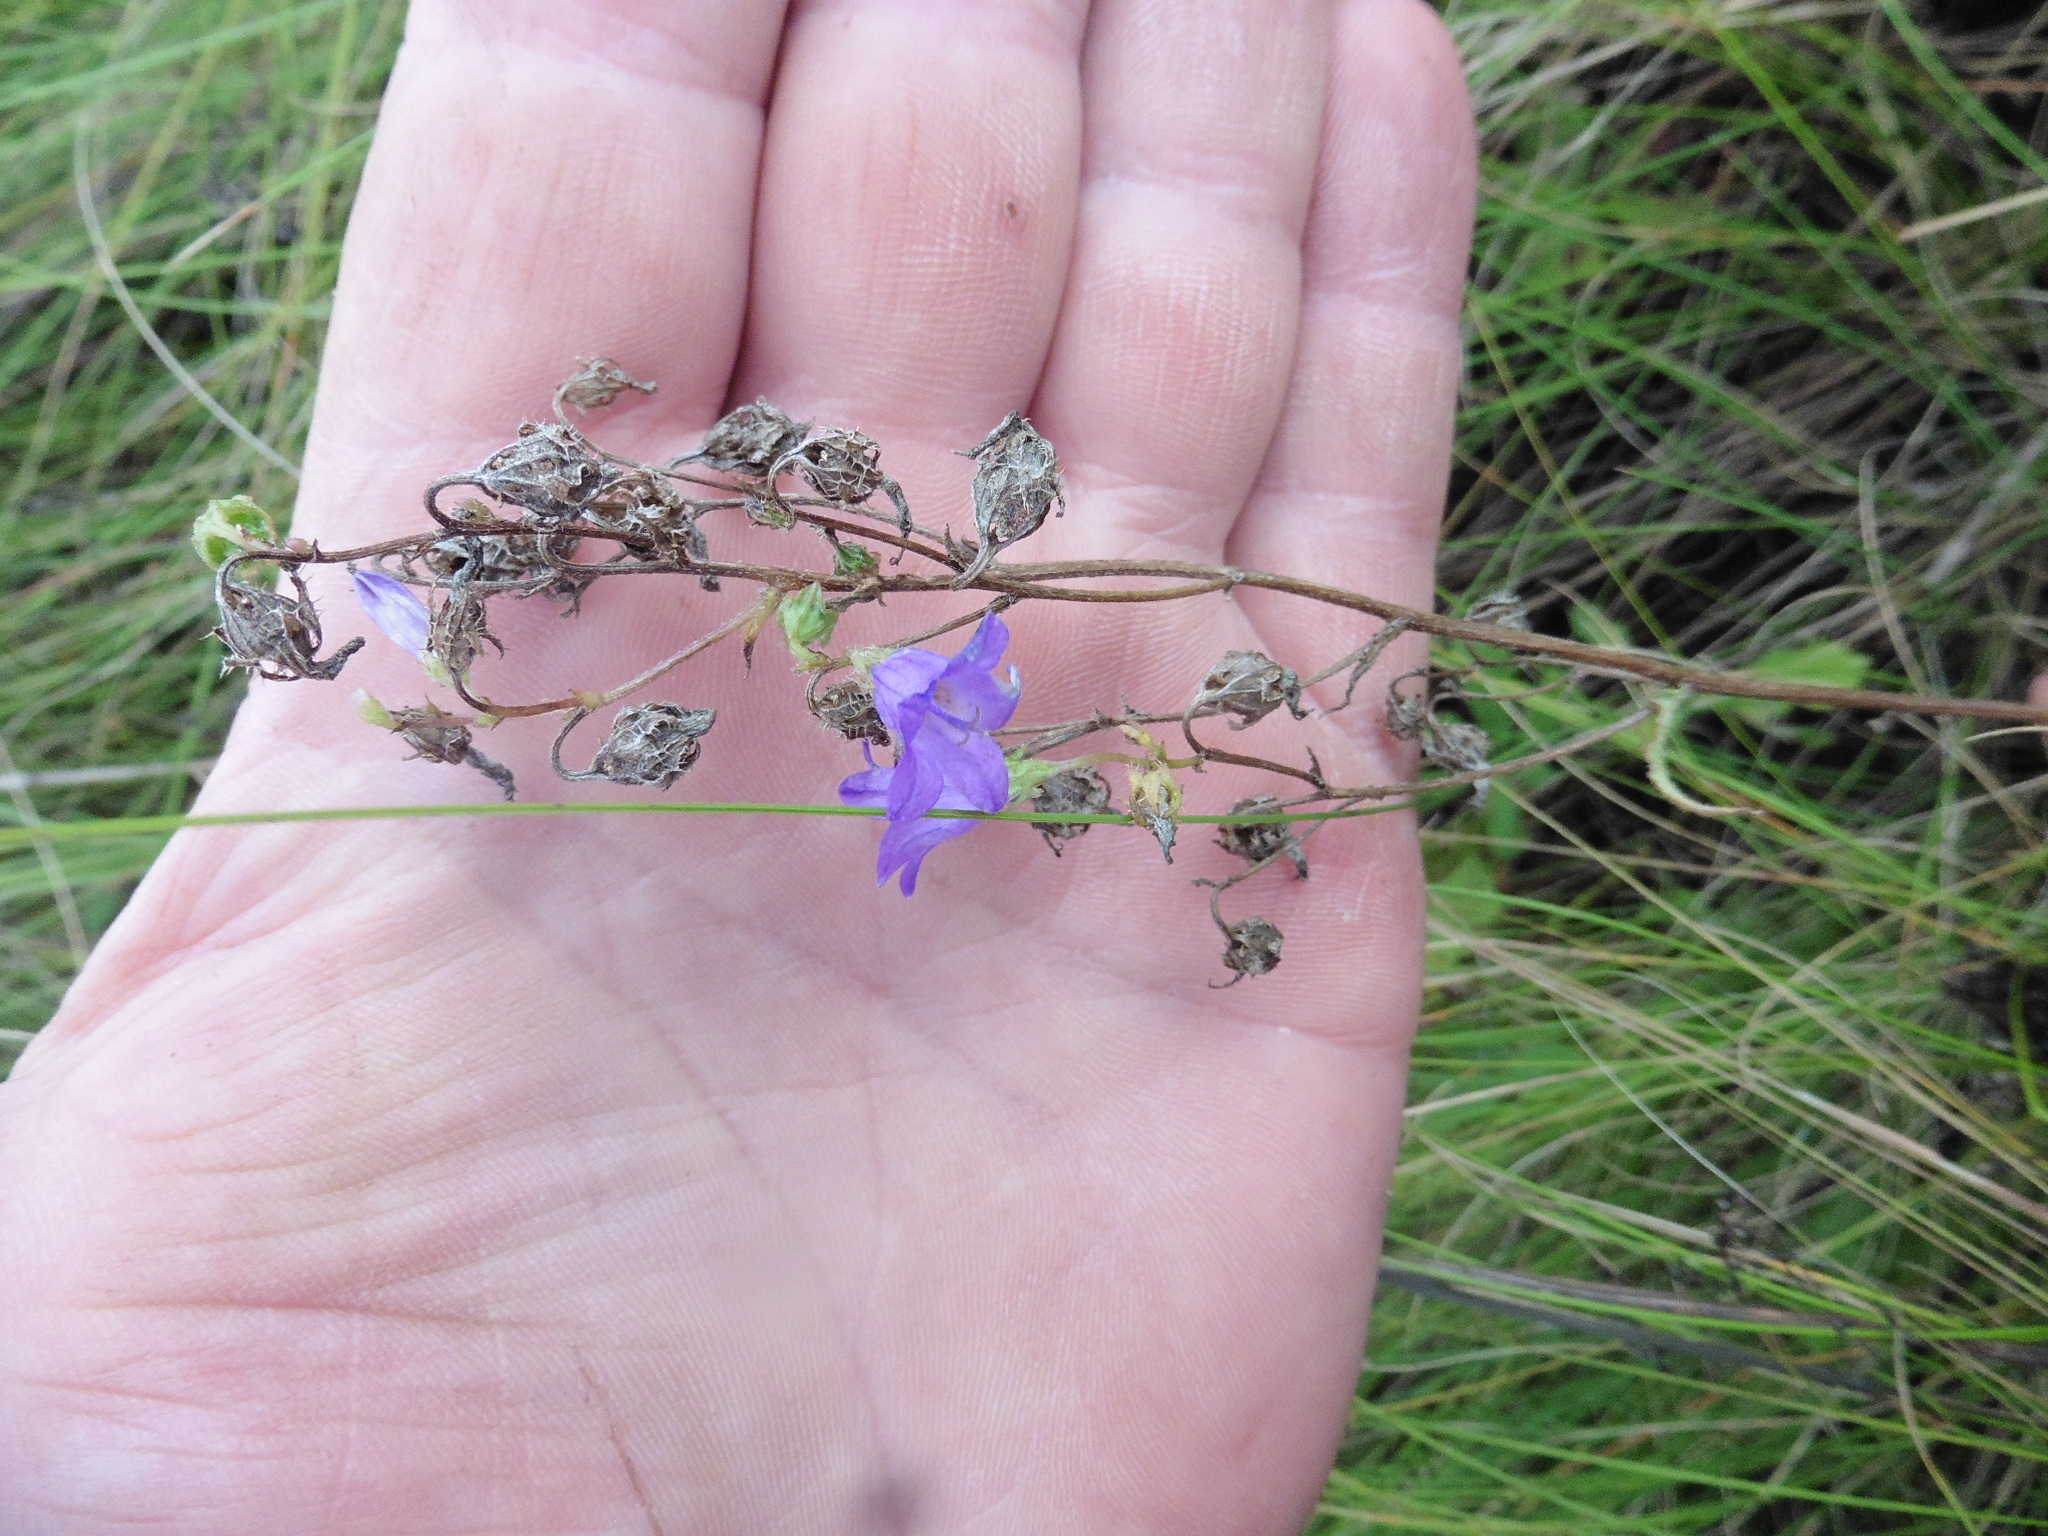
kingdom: Plantae
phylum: Tracheophyta
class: Magnoliopsida
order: Asterales
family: Campanulaceae
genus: Campanula
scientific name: Campanula sibirica
